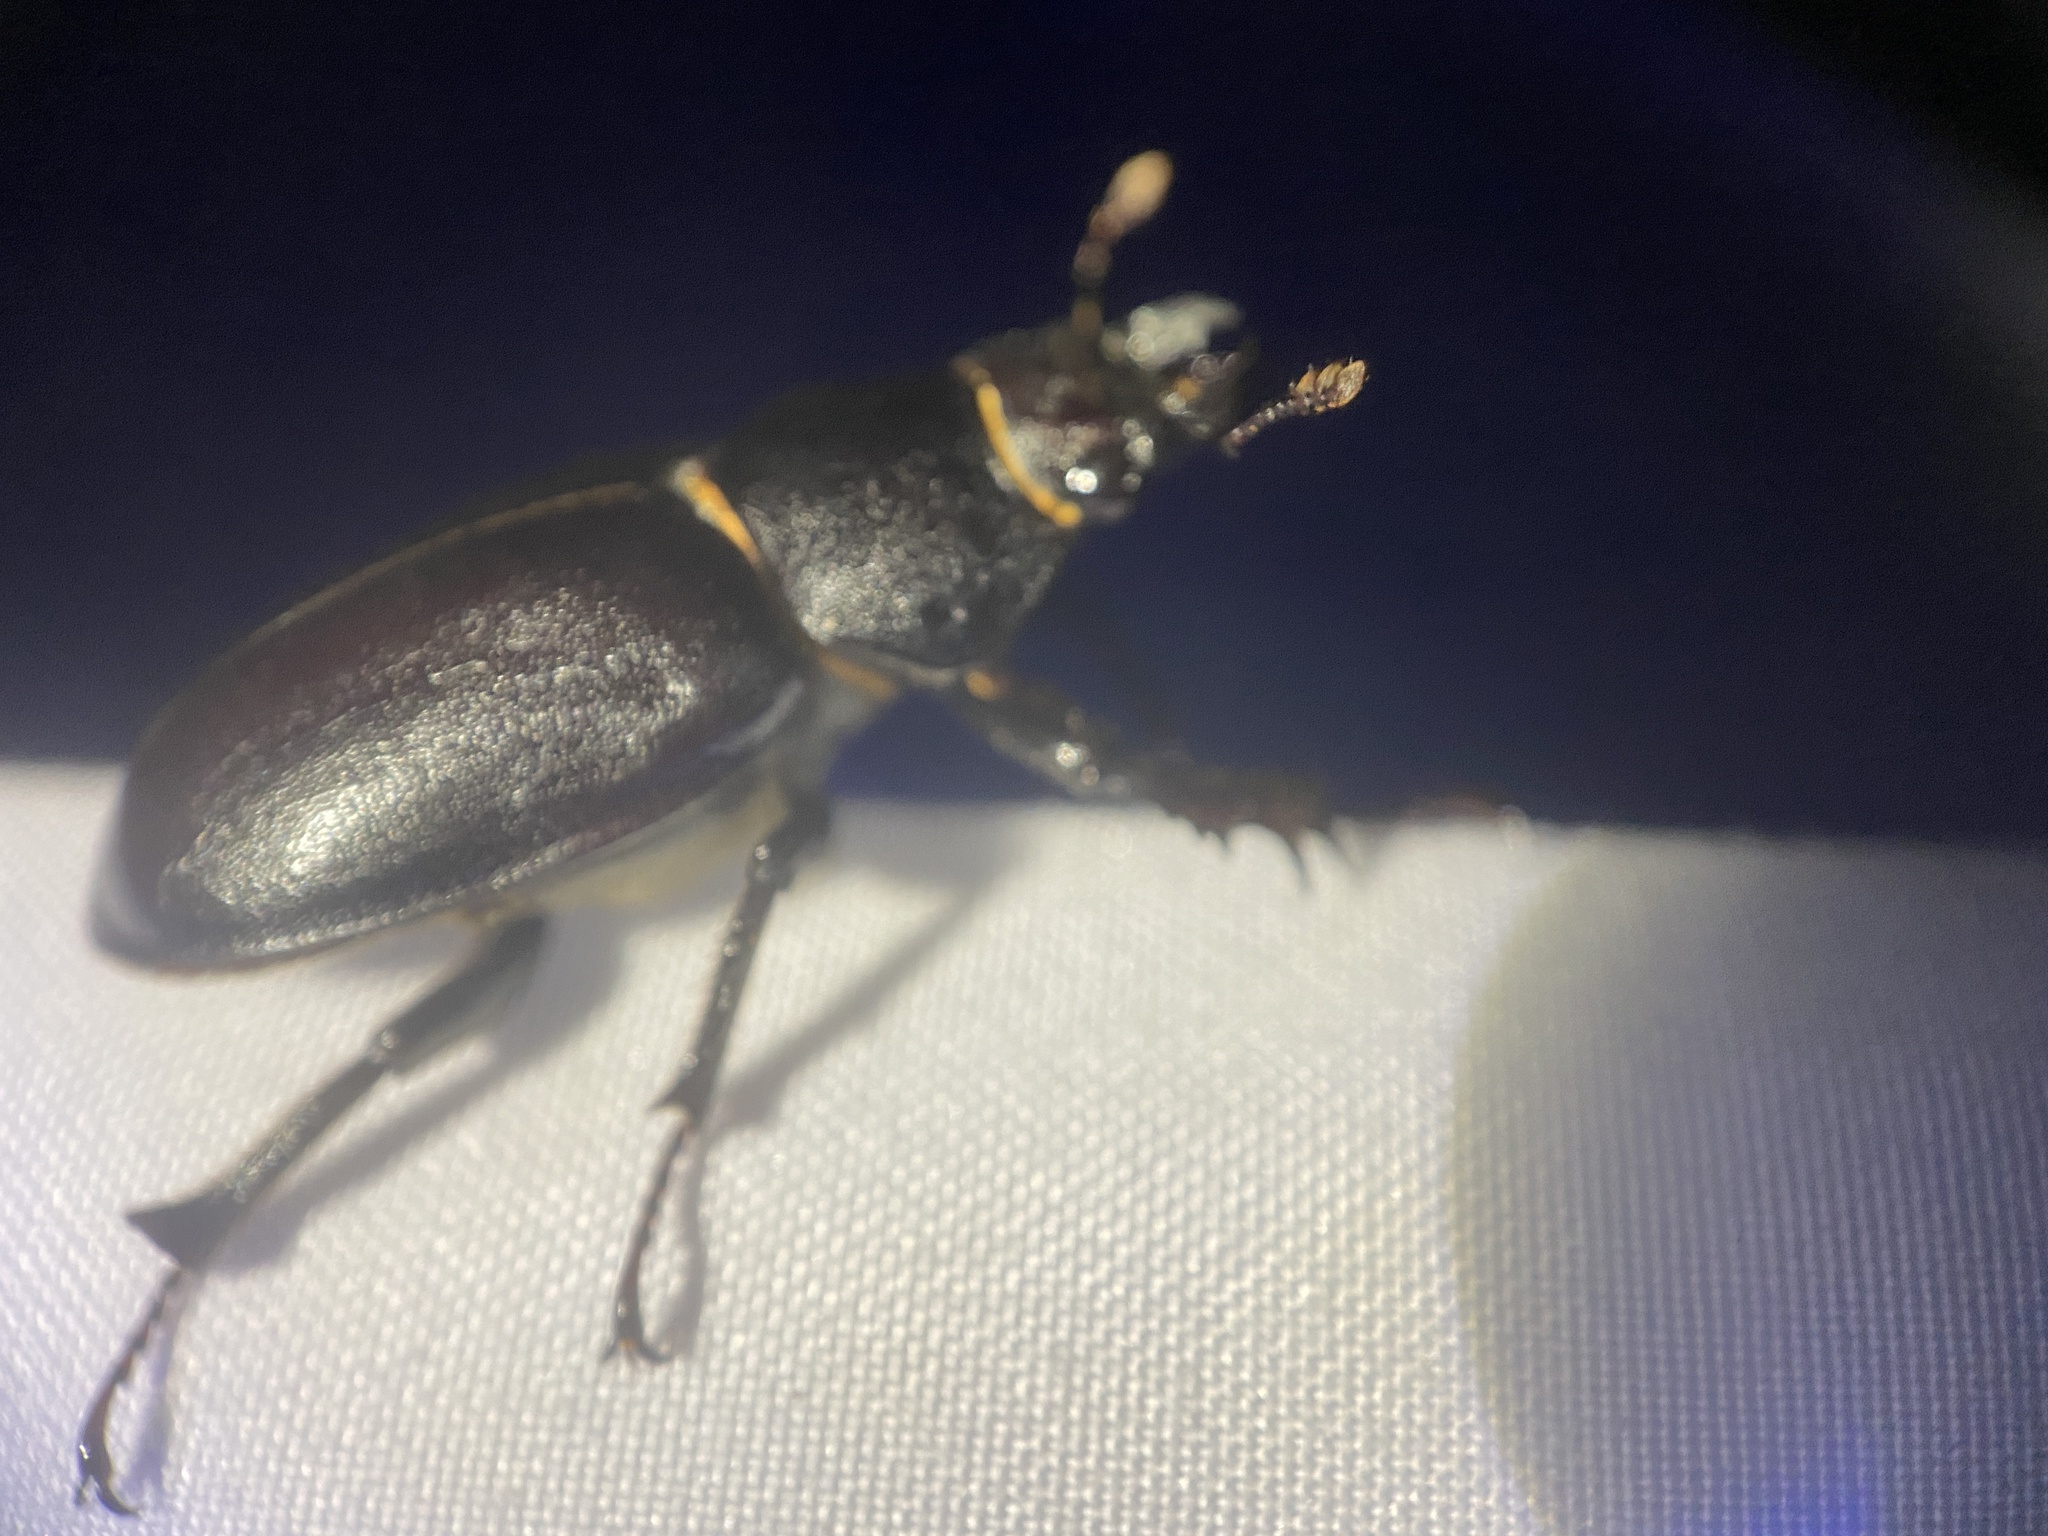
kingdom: Animalia
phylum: Arthropoda
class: Insecta
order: Coleoptera
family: Lucanidae
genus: Lucanus
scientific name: Lucanus placidus
